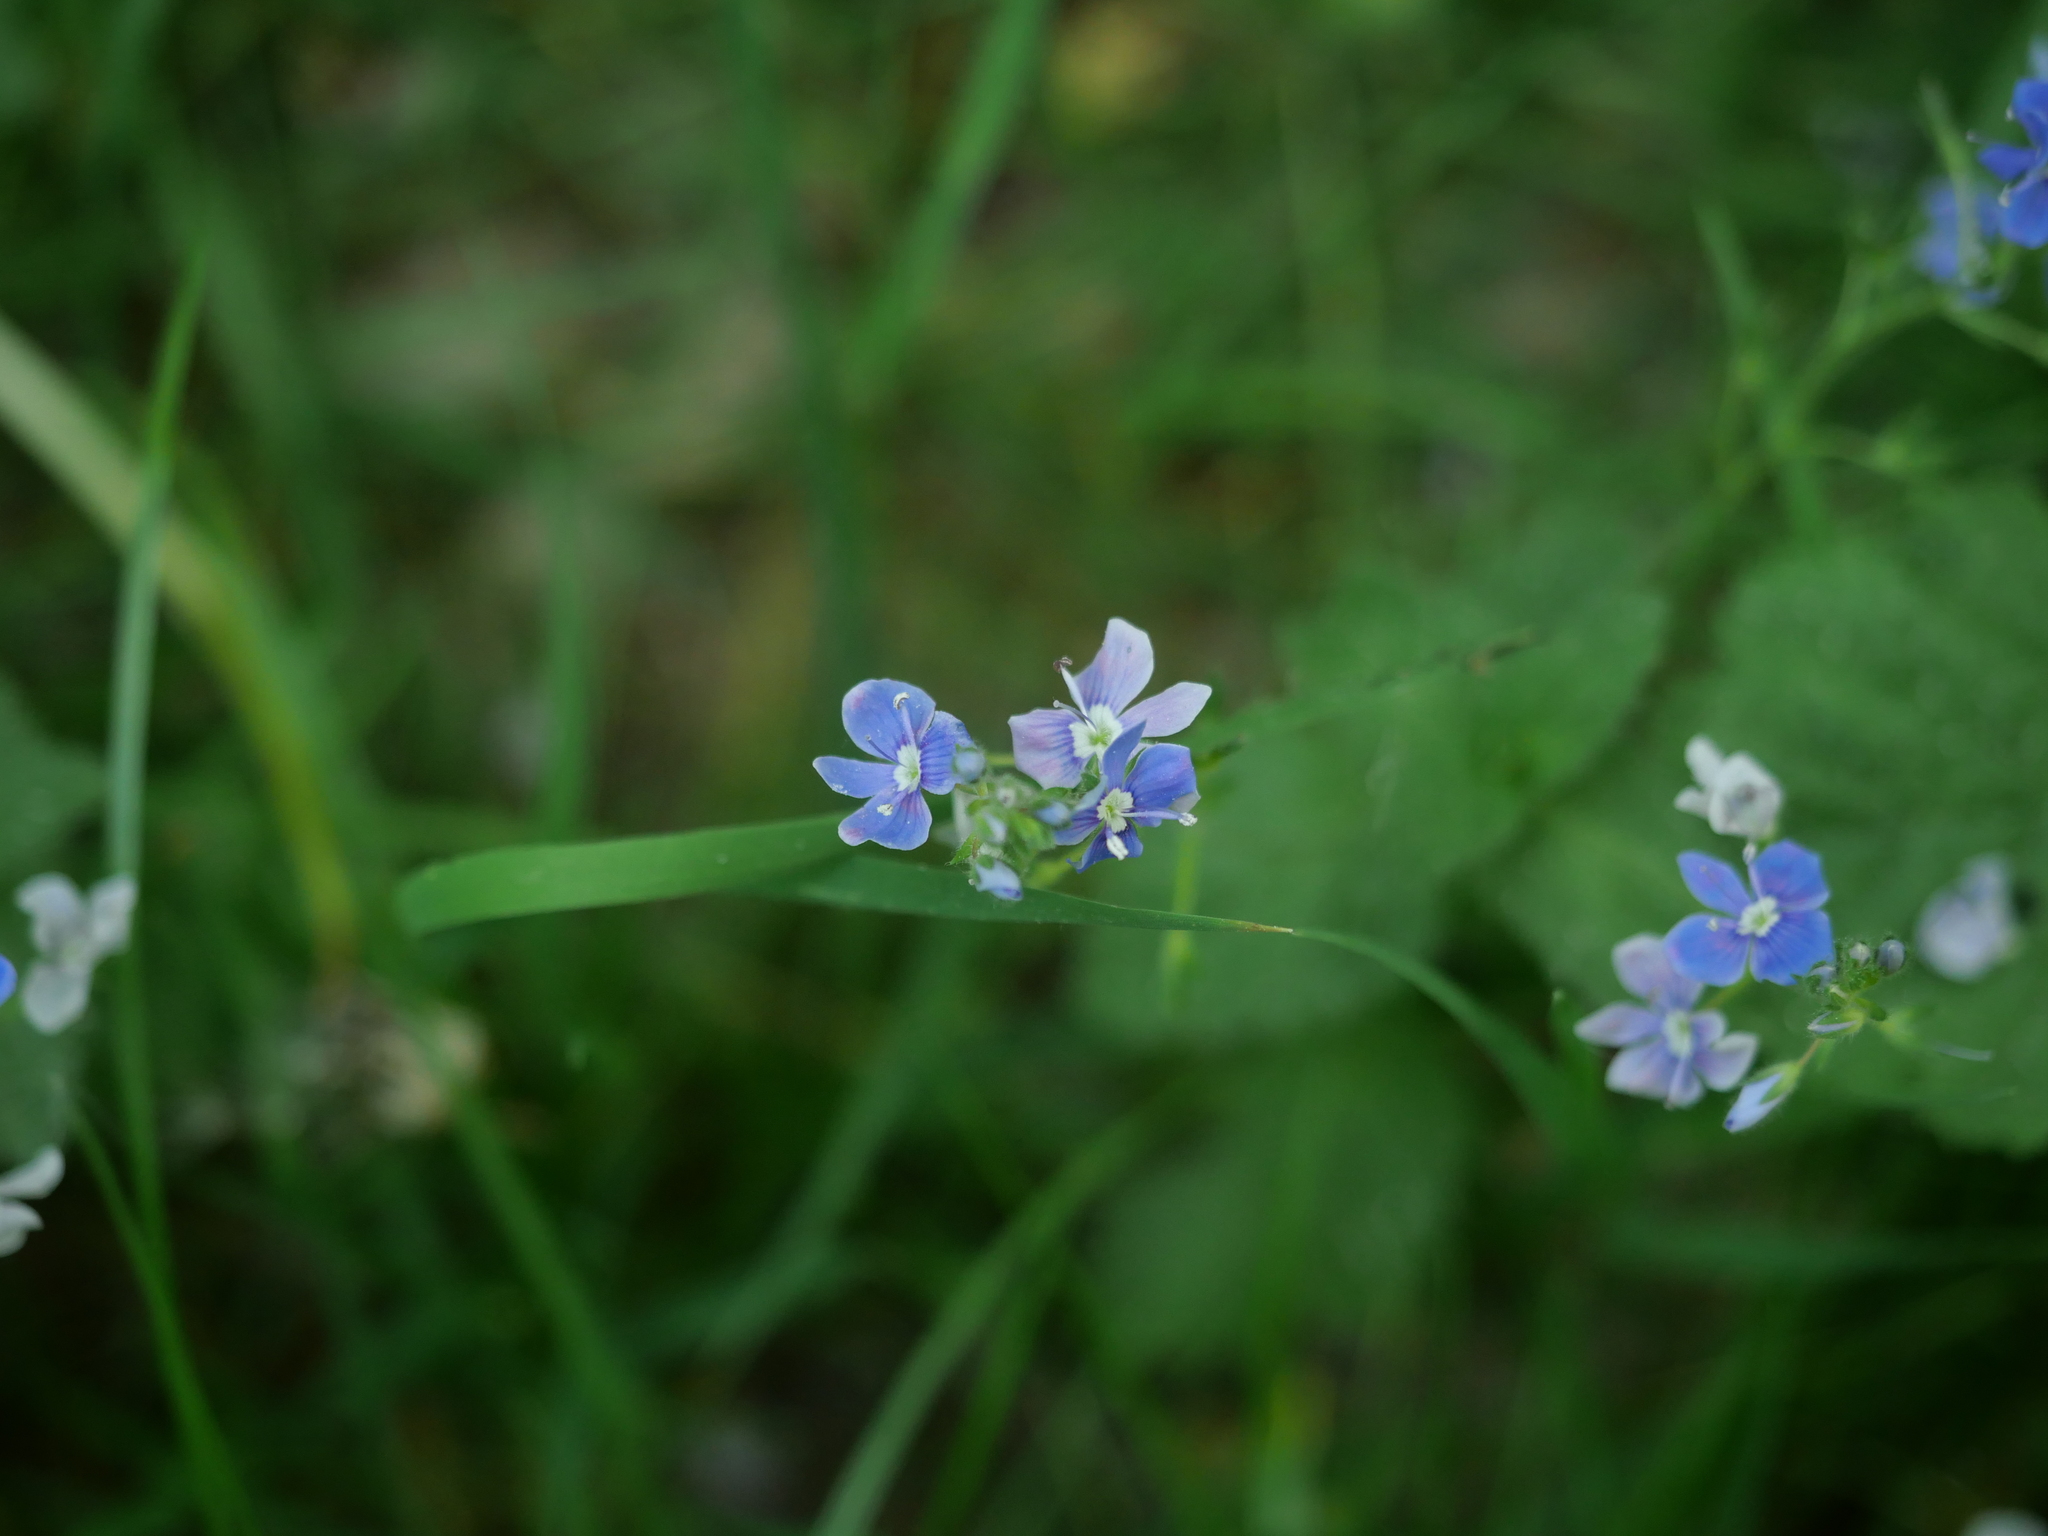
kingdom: Plantae
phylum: Tracheophyta
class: Magnoliopsida
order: Lamiales
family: Plantaginaceae
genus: Veronica
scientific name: Veronica chamaedrys
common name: Germander speedwell
